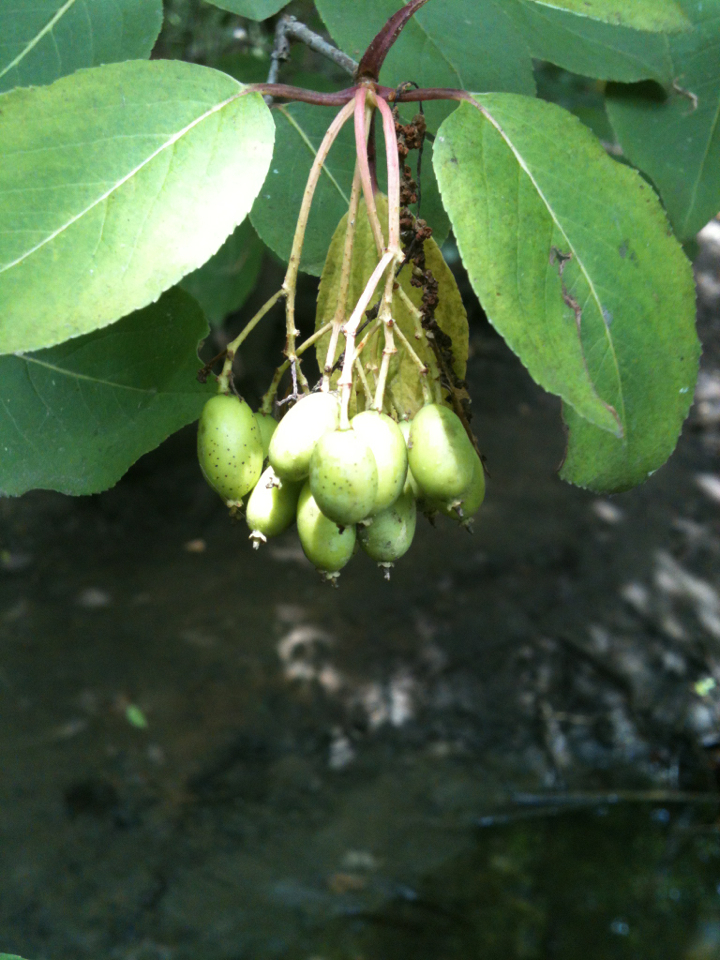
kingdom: Plantae
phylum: Tracheophyta
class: Magnoliopsida
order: Dipsacales
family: Viburnaceae
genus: Viburnum
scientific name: Viburnum prunifolium
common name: Black haw
